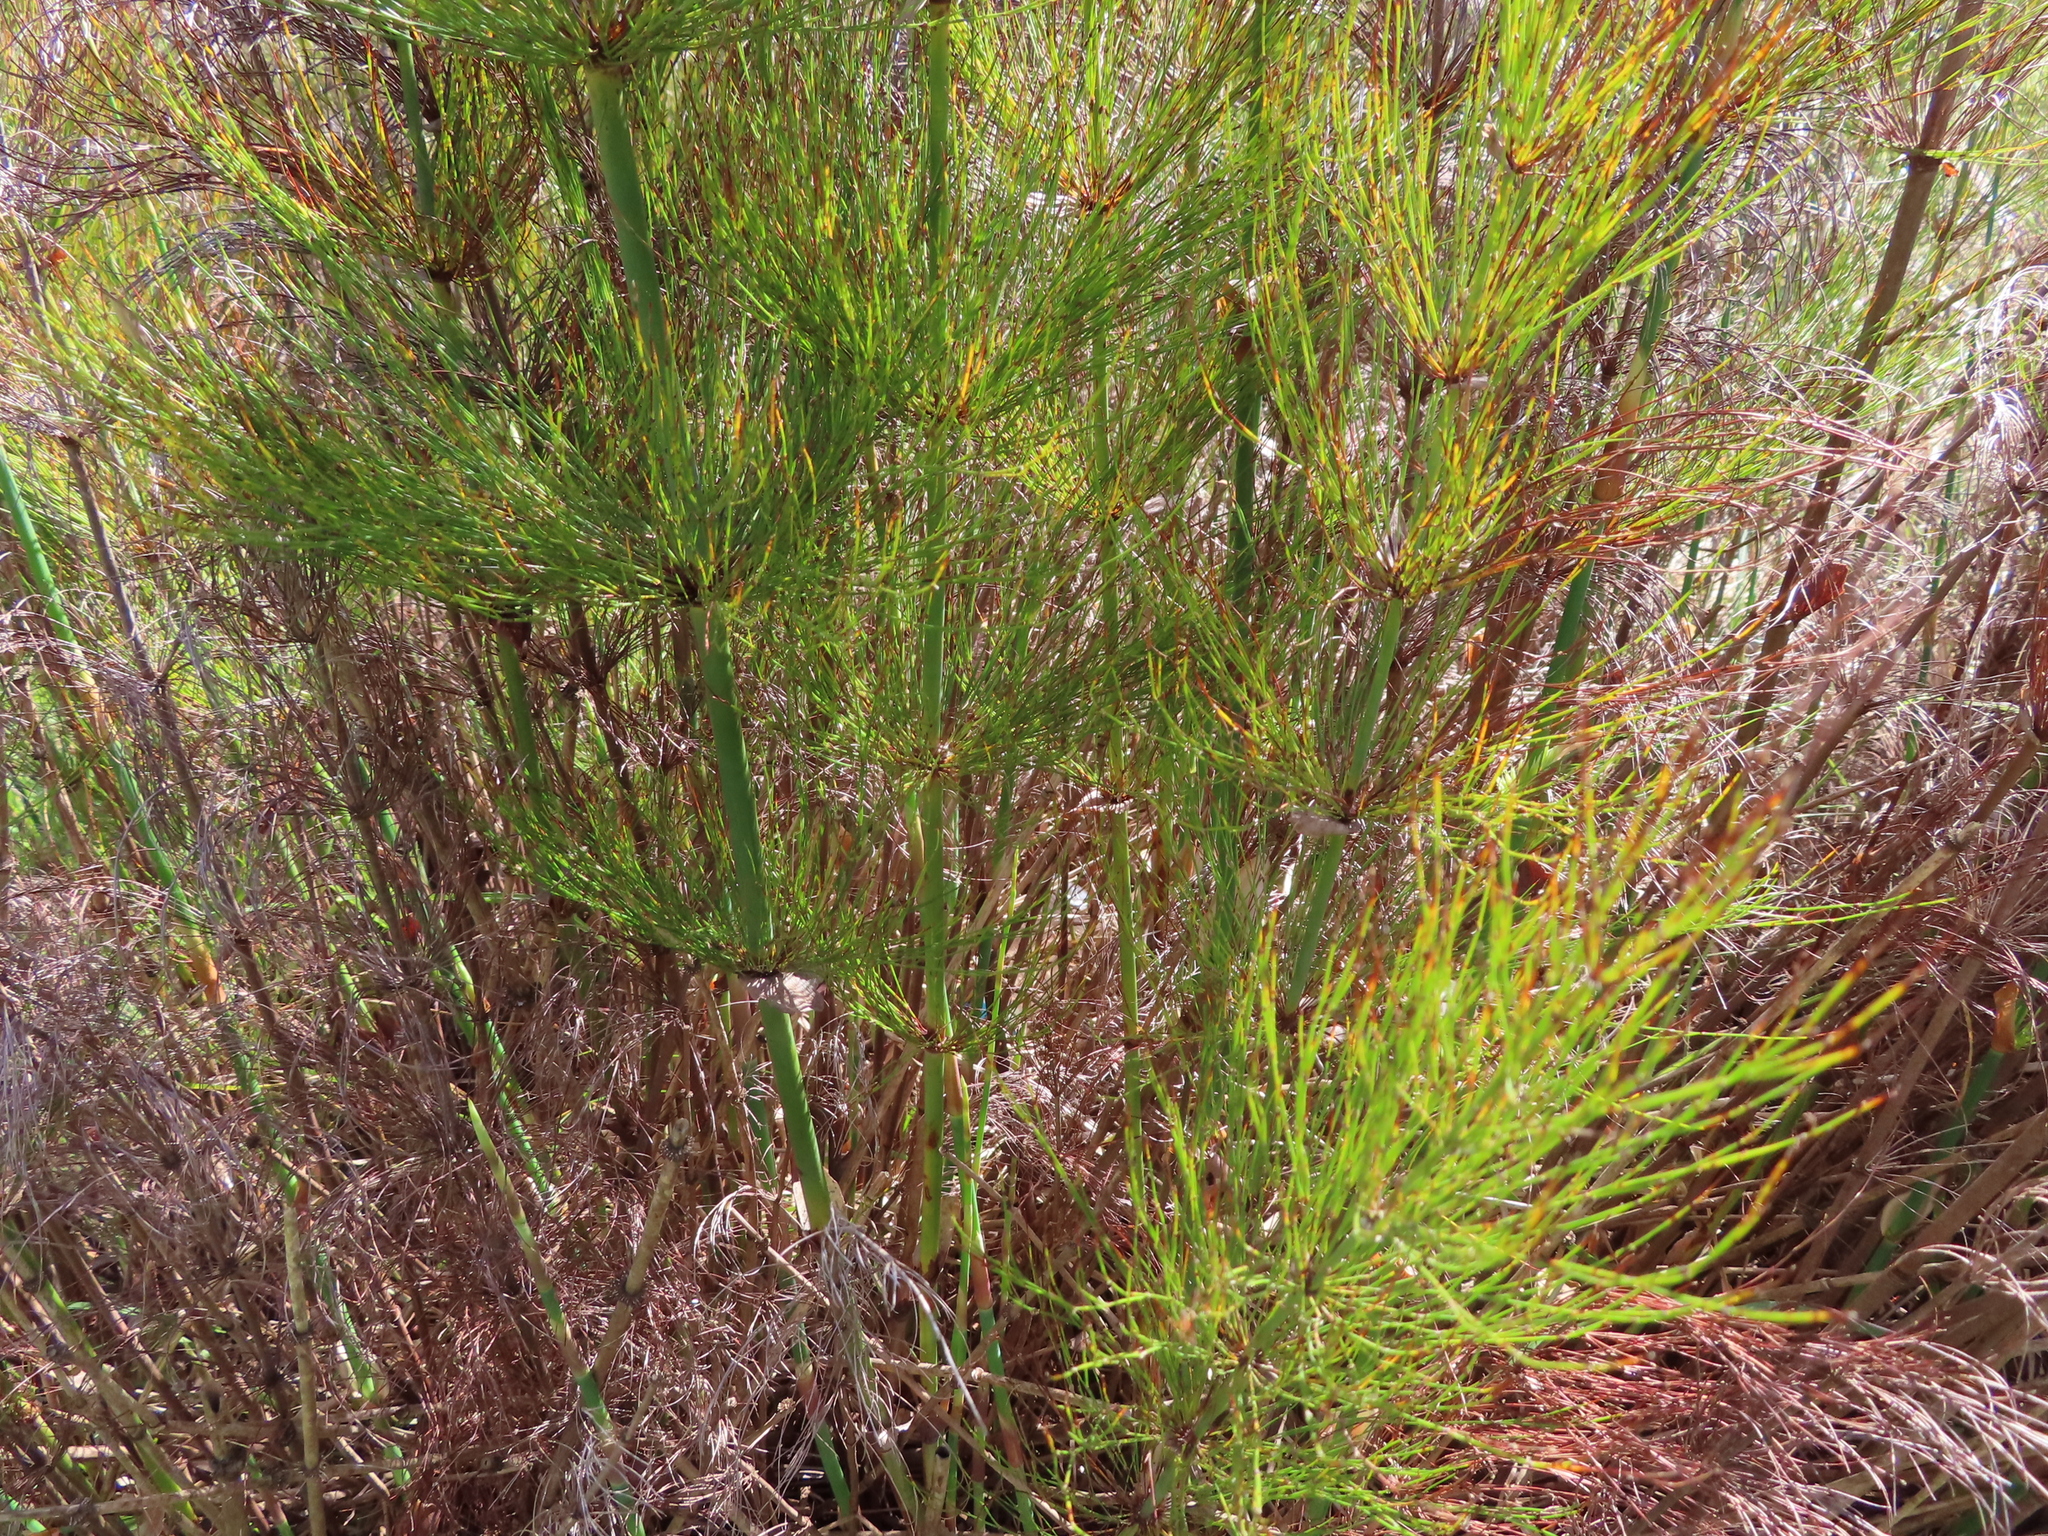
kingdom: Plantae
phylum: Tracheophyta
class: Liliopsida
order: Poales
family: Restionaceae
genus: Elegia
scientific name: Elegia capensis
